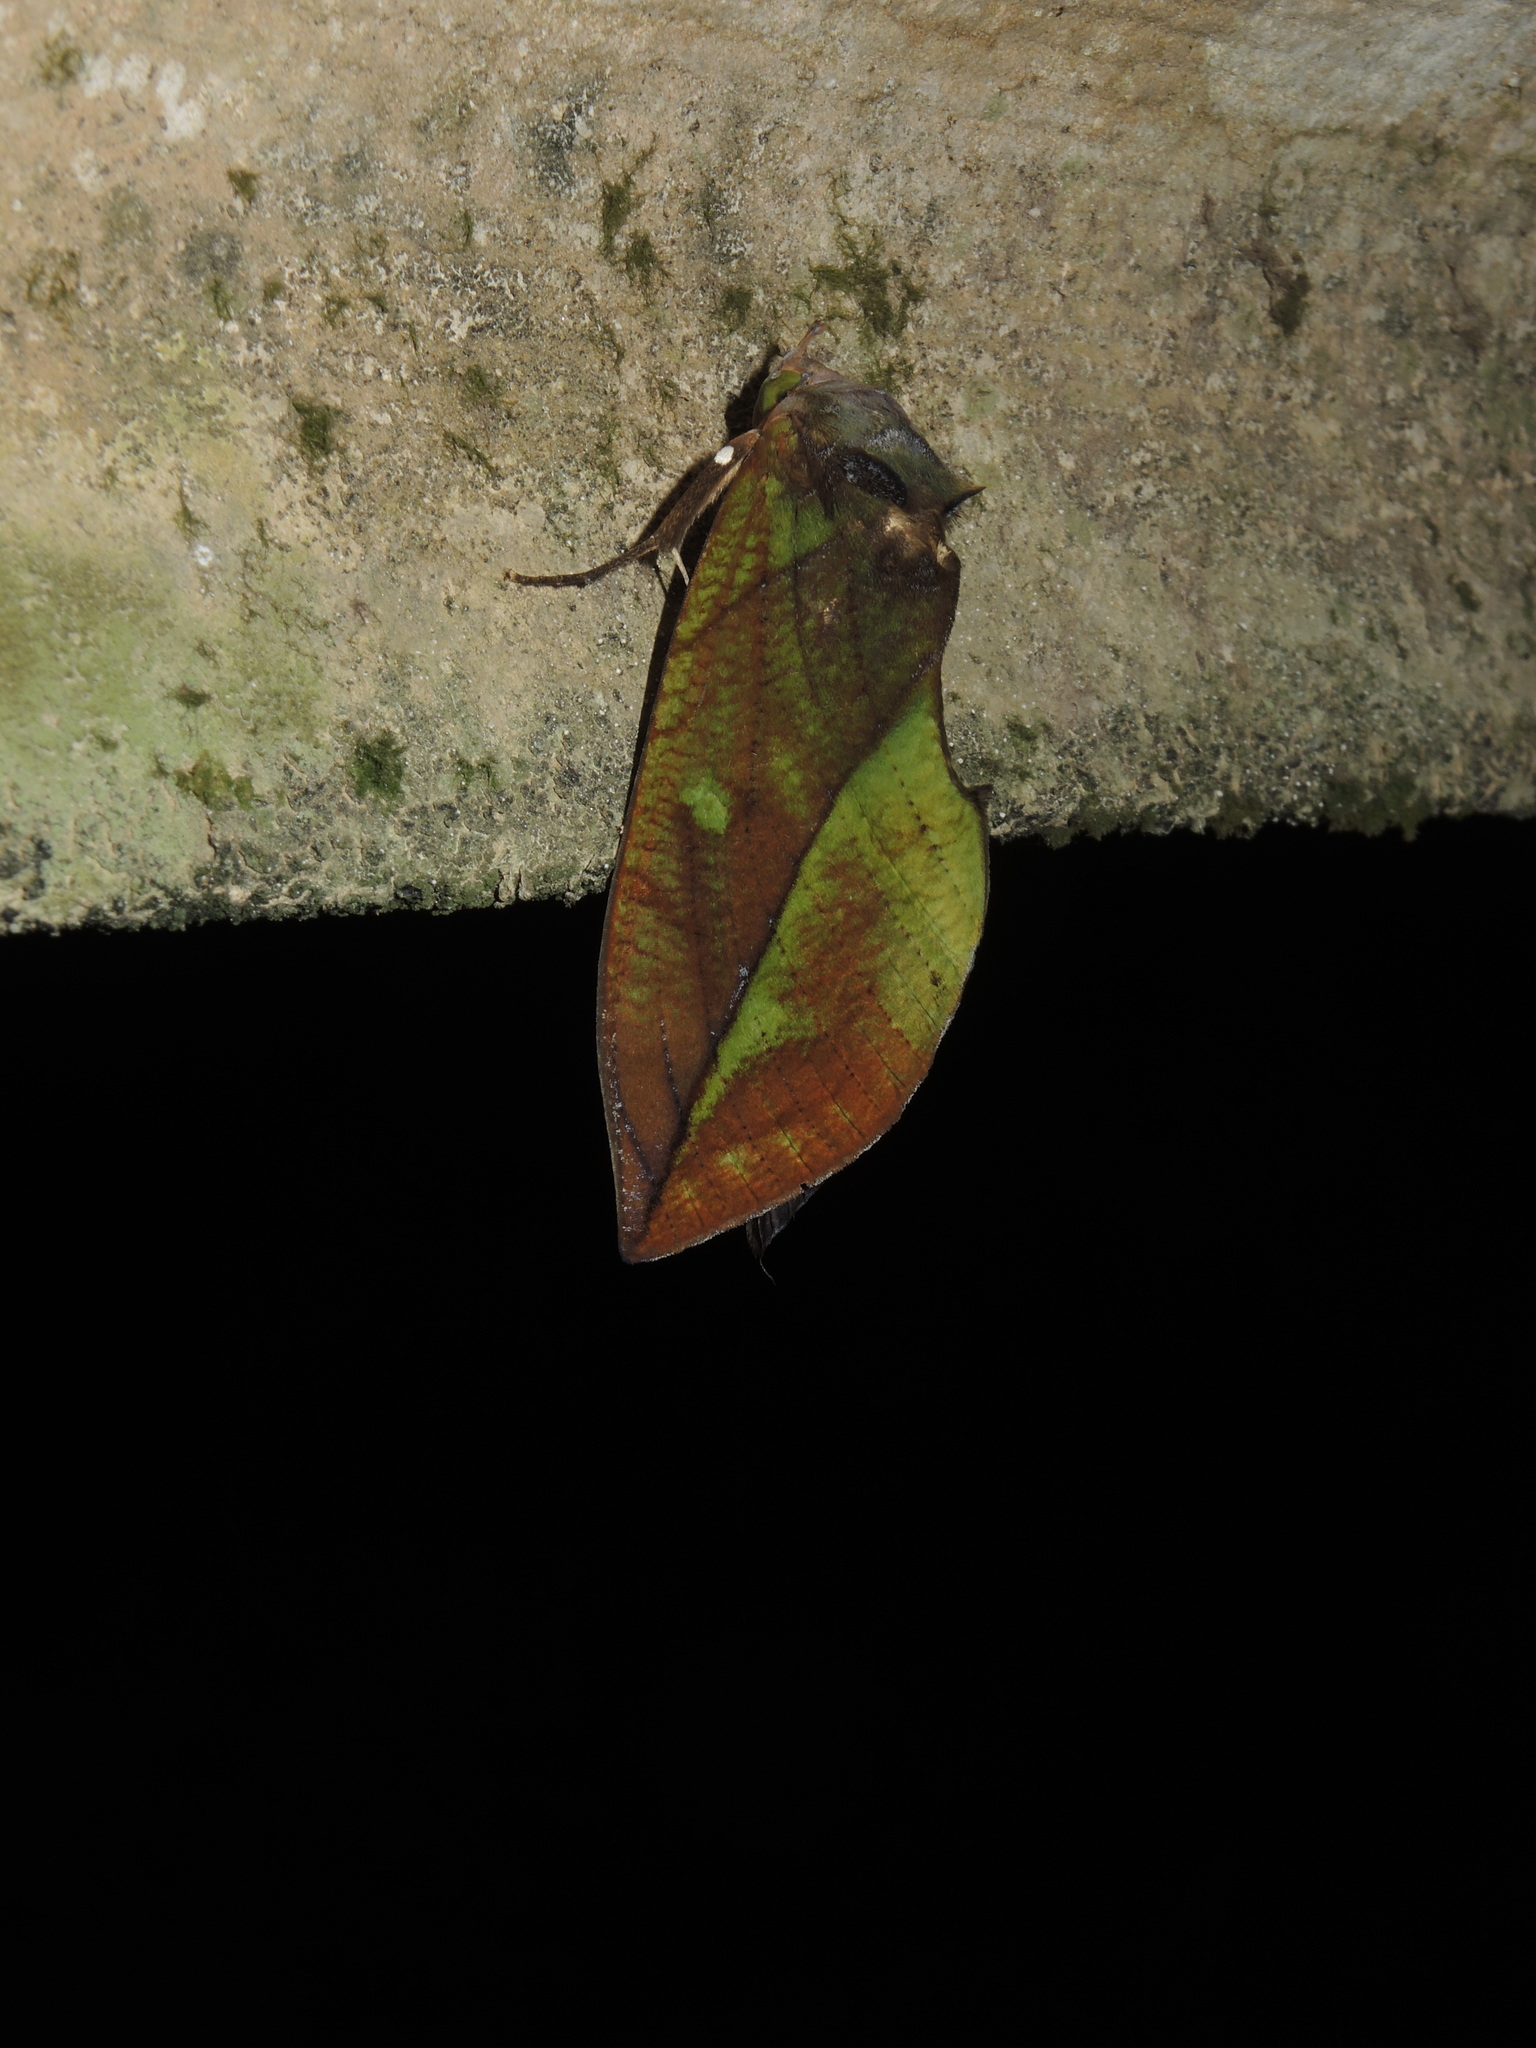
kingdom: Animalia
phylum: Arthropoda
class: Insecta
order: Lepidoptera
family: Erebidae
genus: Eudocima
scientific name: Eudocima tyrannus
